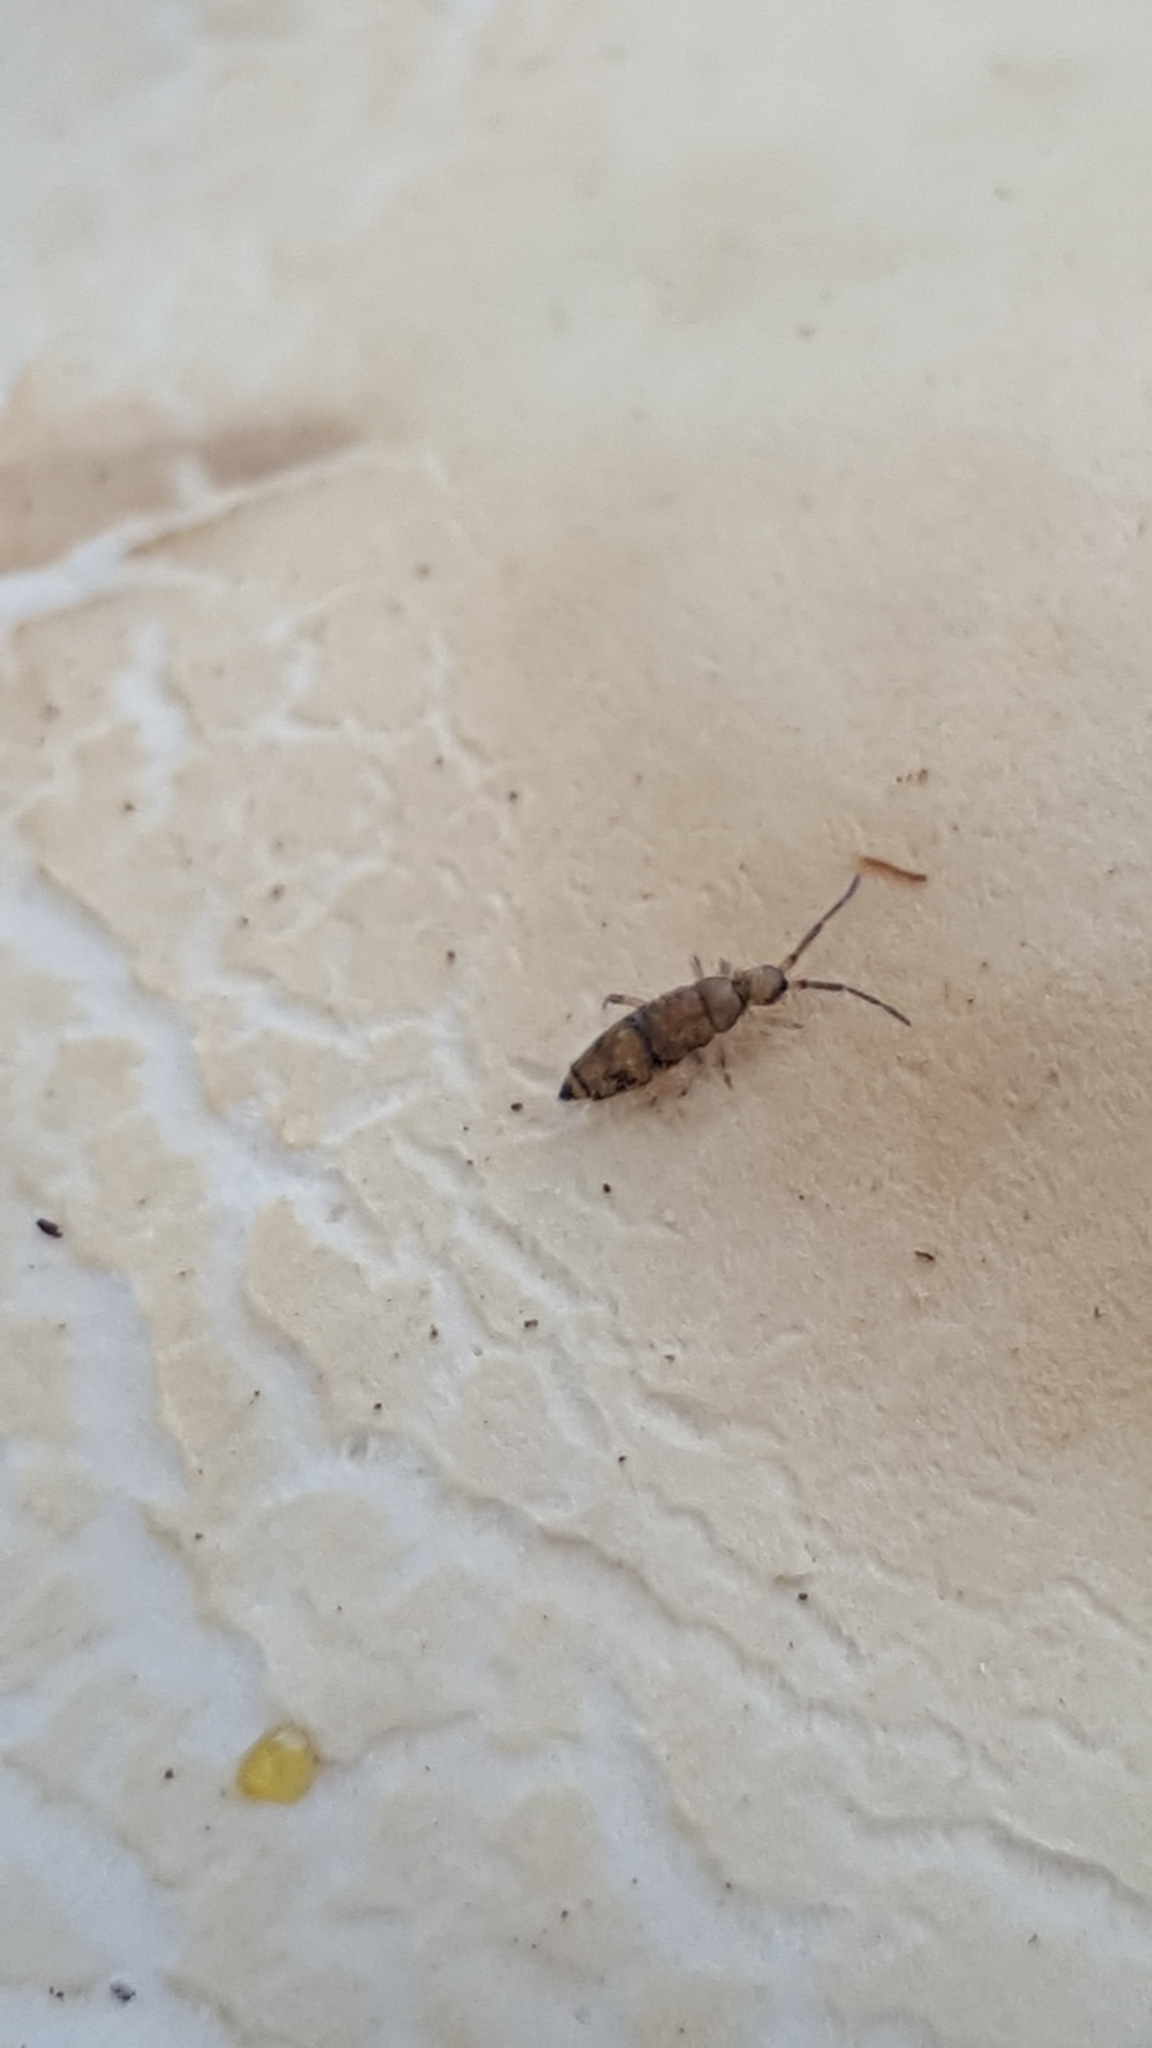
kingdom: Animalia
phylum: Arthropoda
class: Collembola
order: Entomobryomorpha
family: Entomobryidae
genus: Willowsia
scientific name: Willowsia nigromaculata
